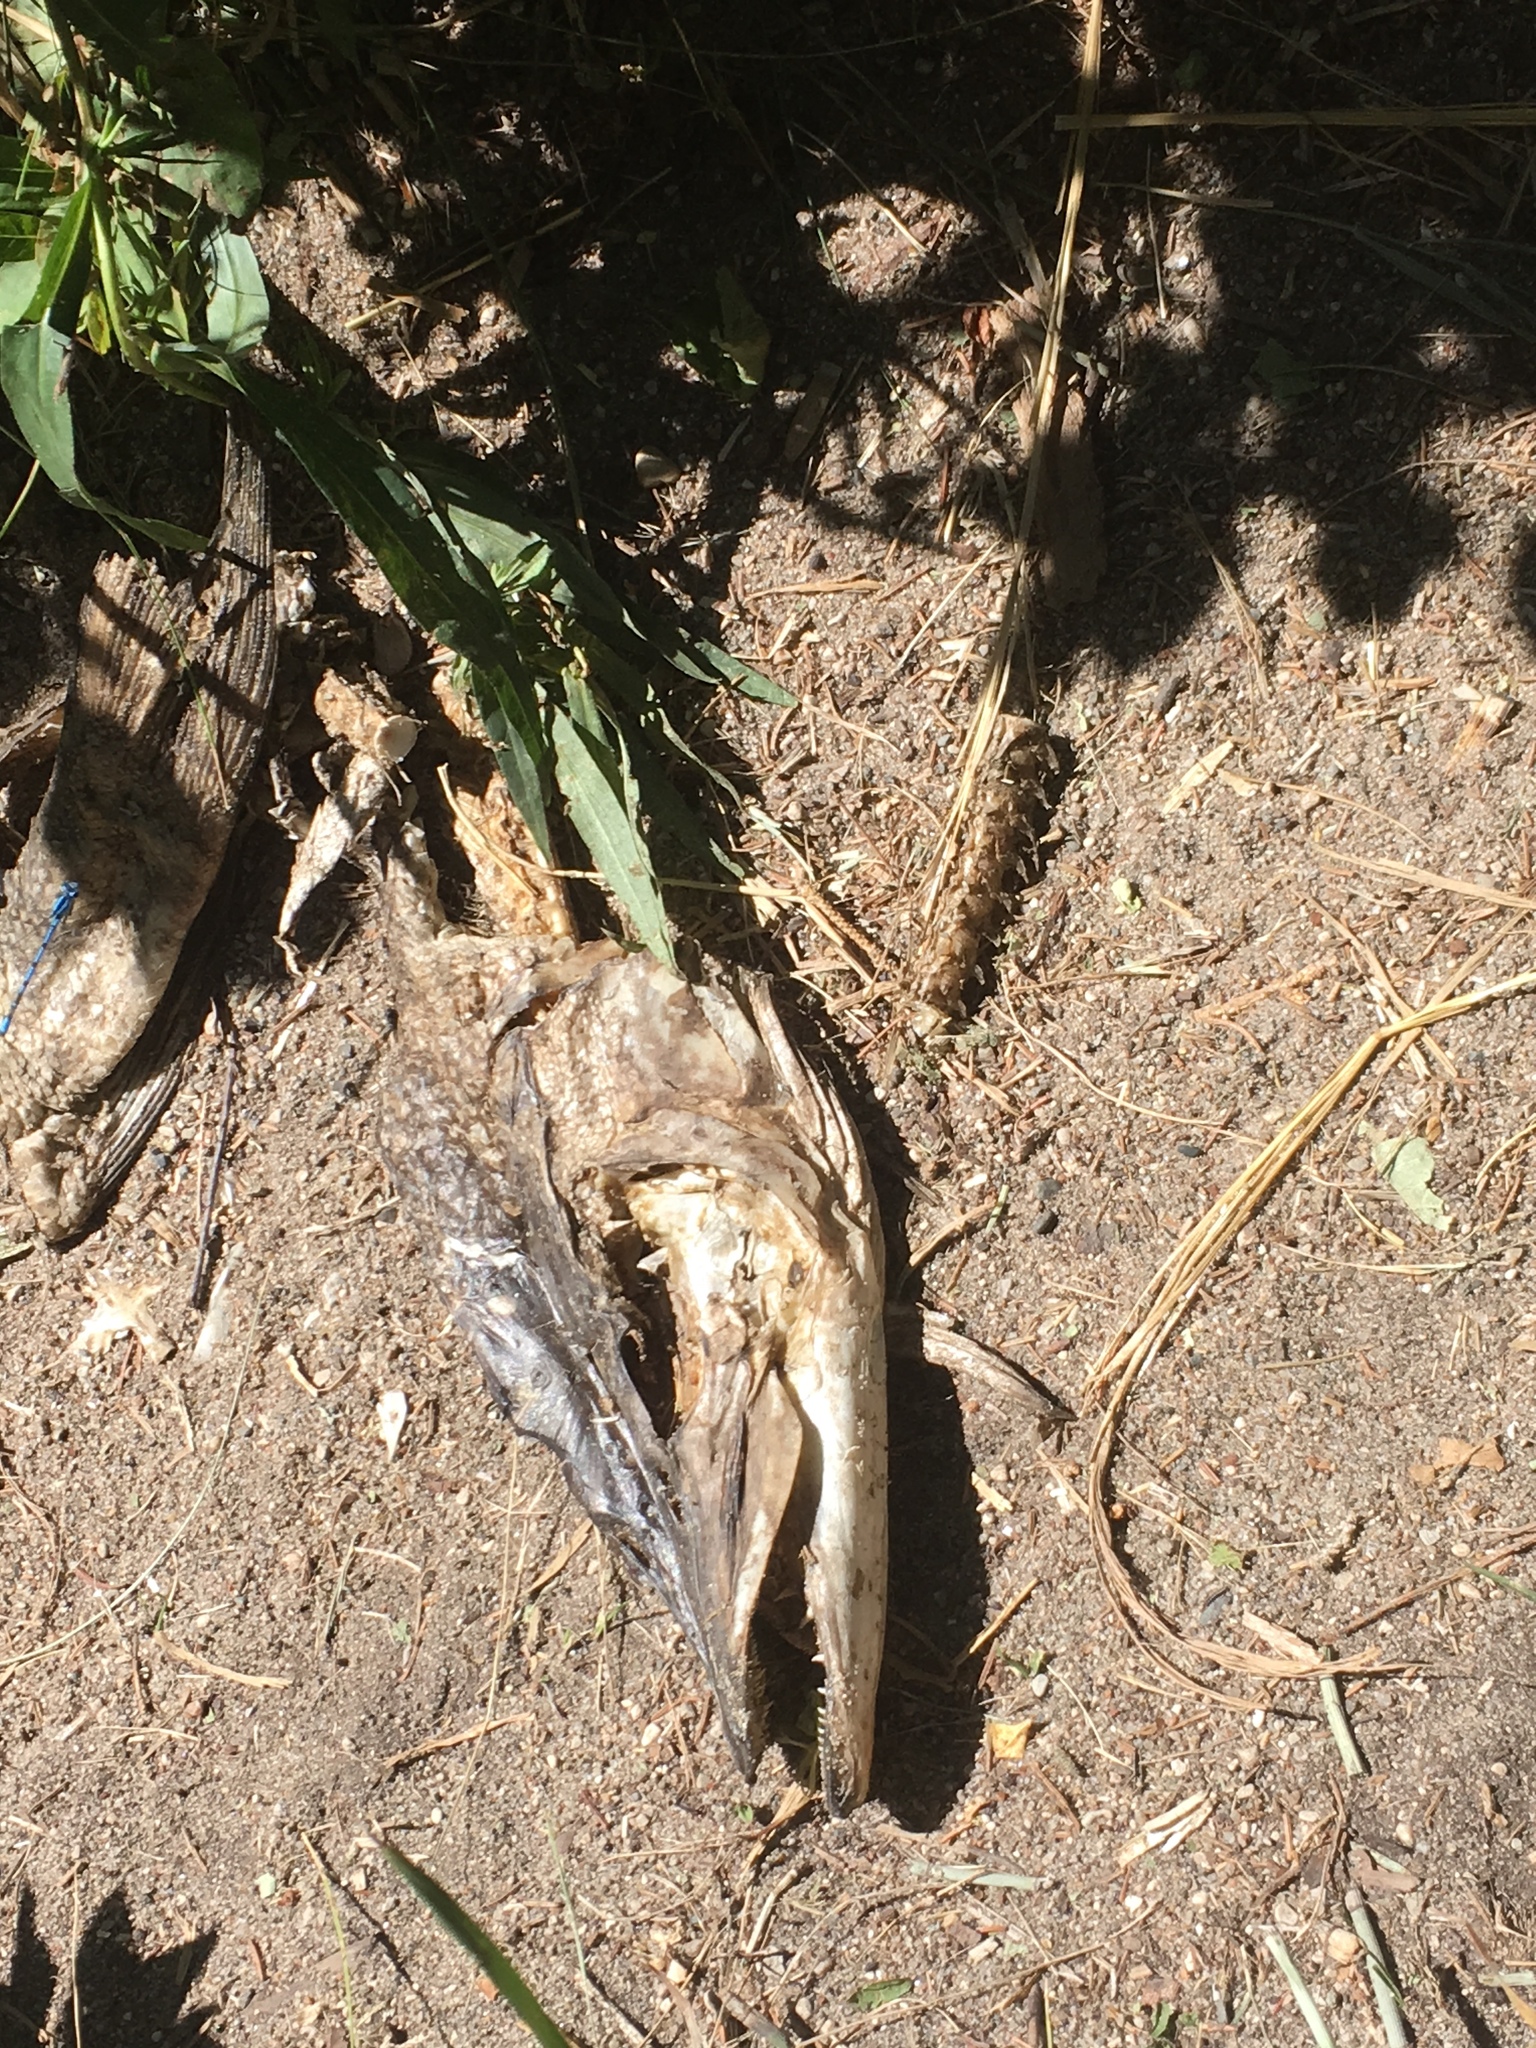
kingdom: Animalia
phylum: Chordata
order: Esociformes
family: Esocidae
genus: Esox
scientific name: Esox lucius
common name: Northern pike
